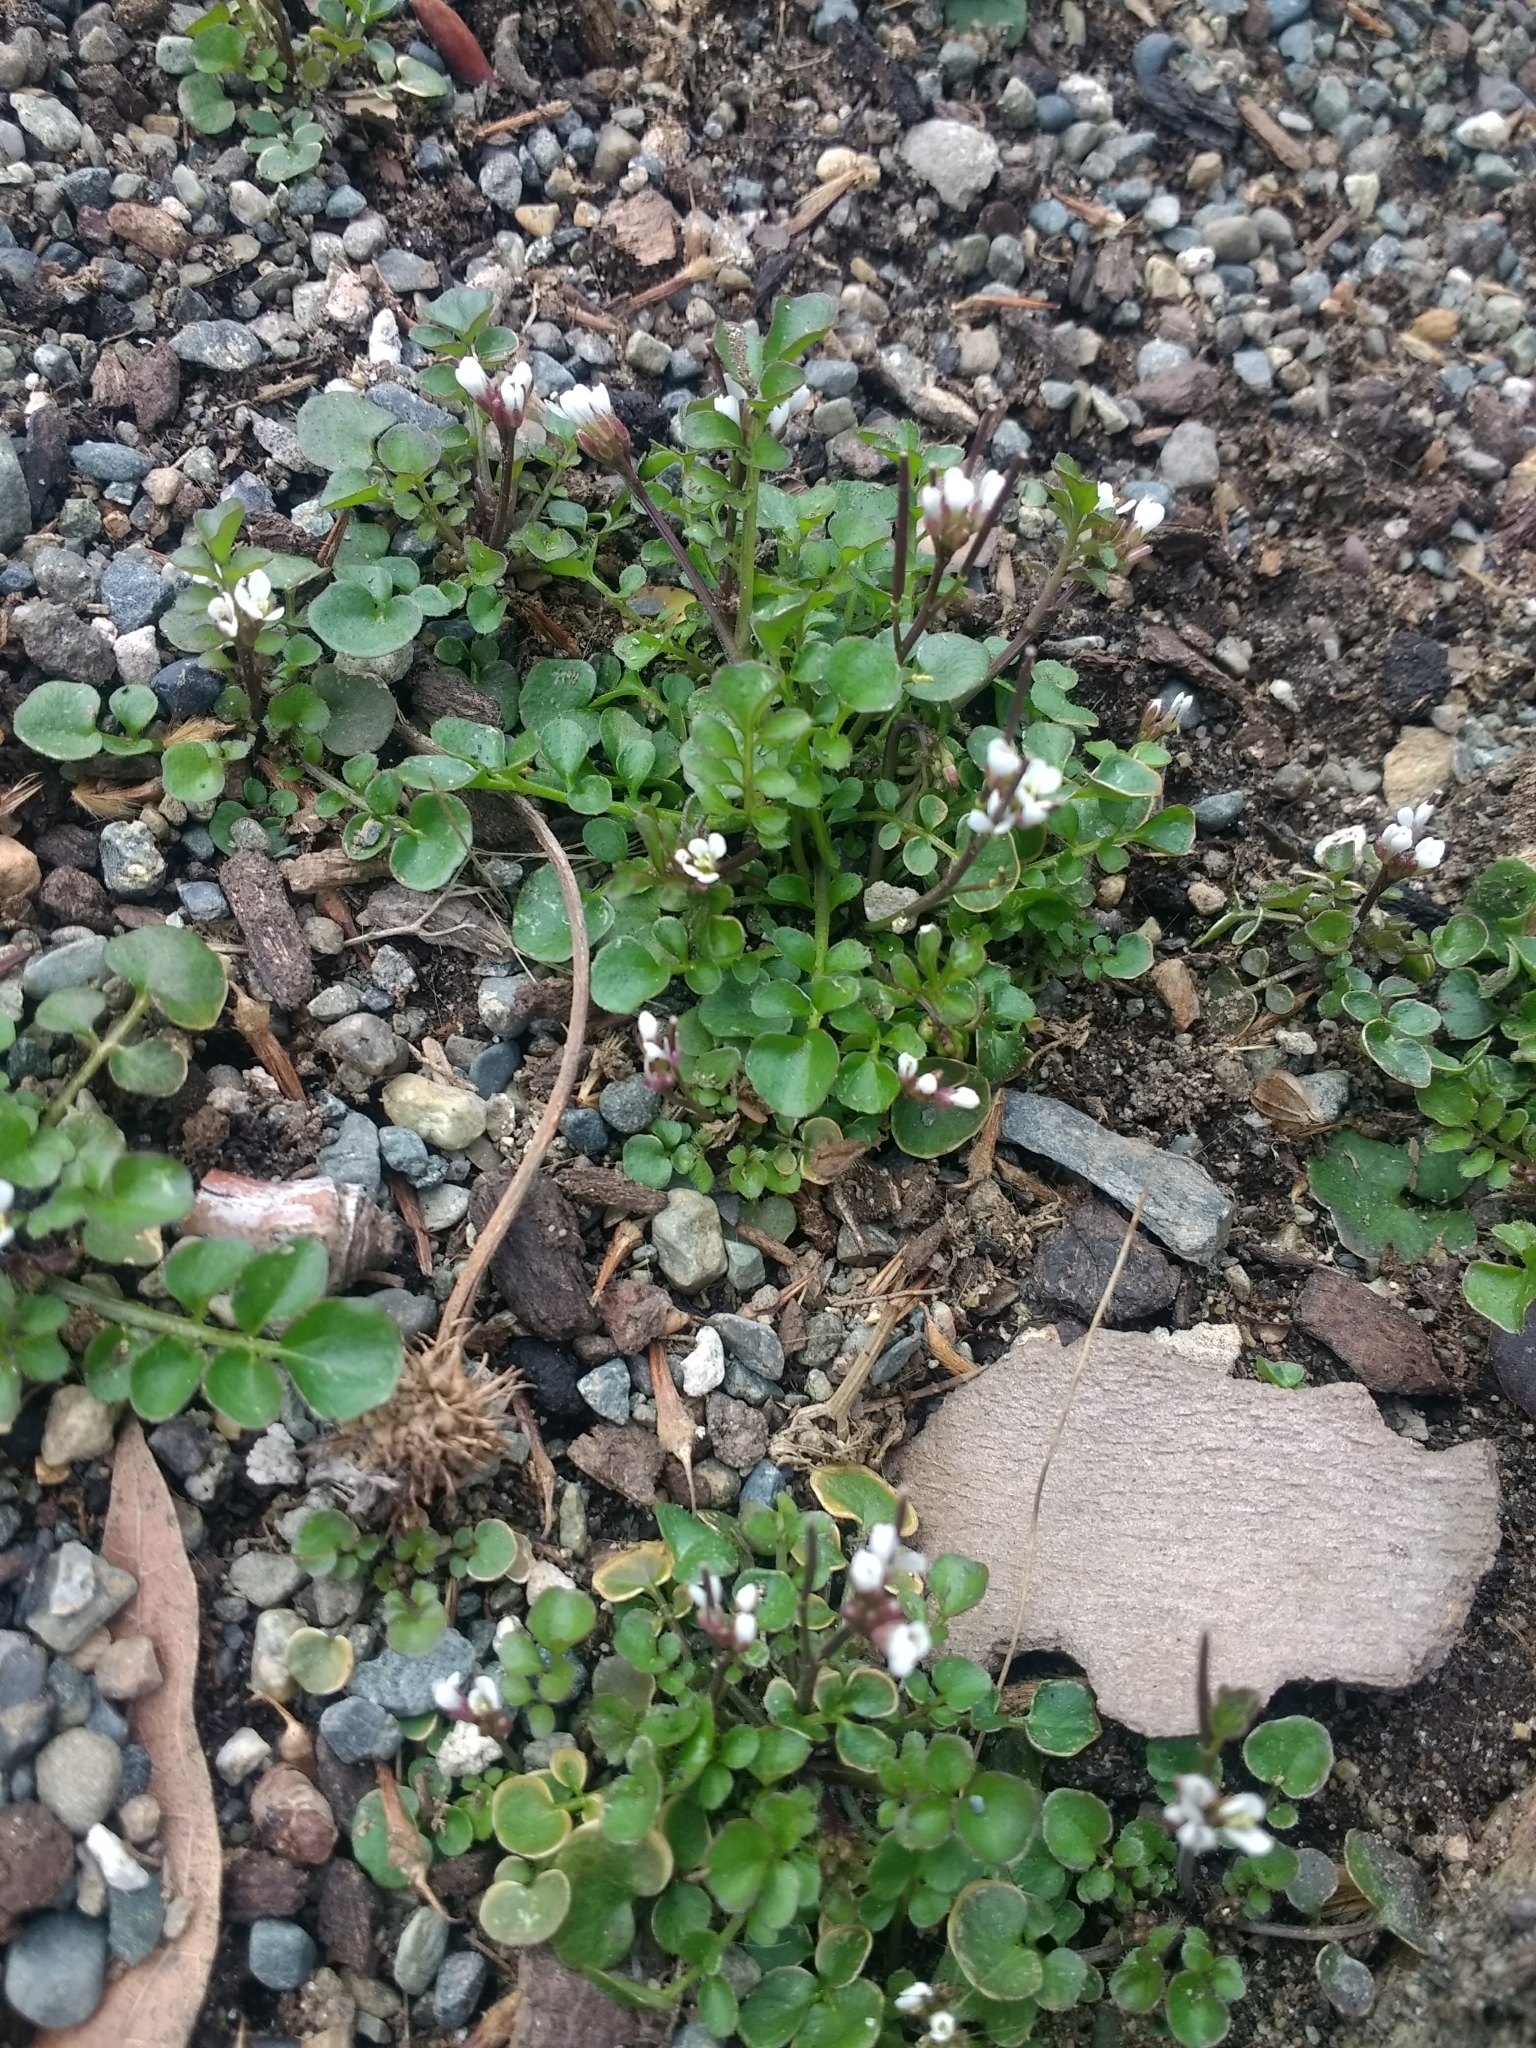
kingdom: Plantae
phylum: Tracheophyta
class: Magnoliopsida
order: Brassicales
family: Brassicaceae
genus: Cardamine
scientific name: Cardamine hirsuta
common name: Hairy bittercress
